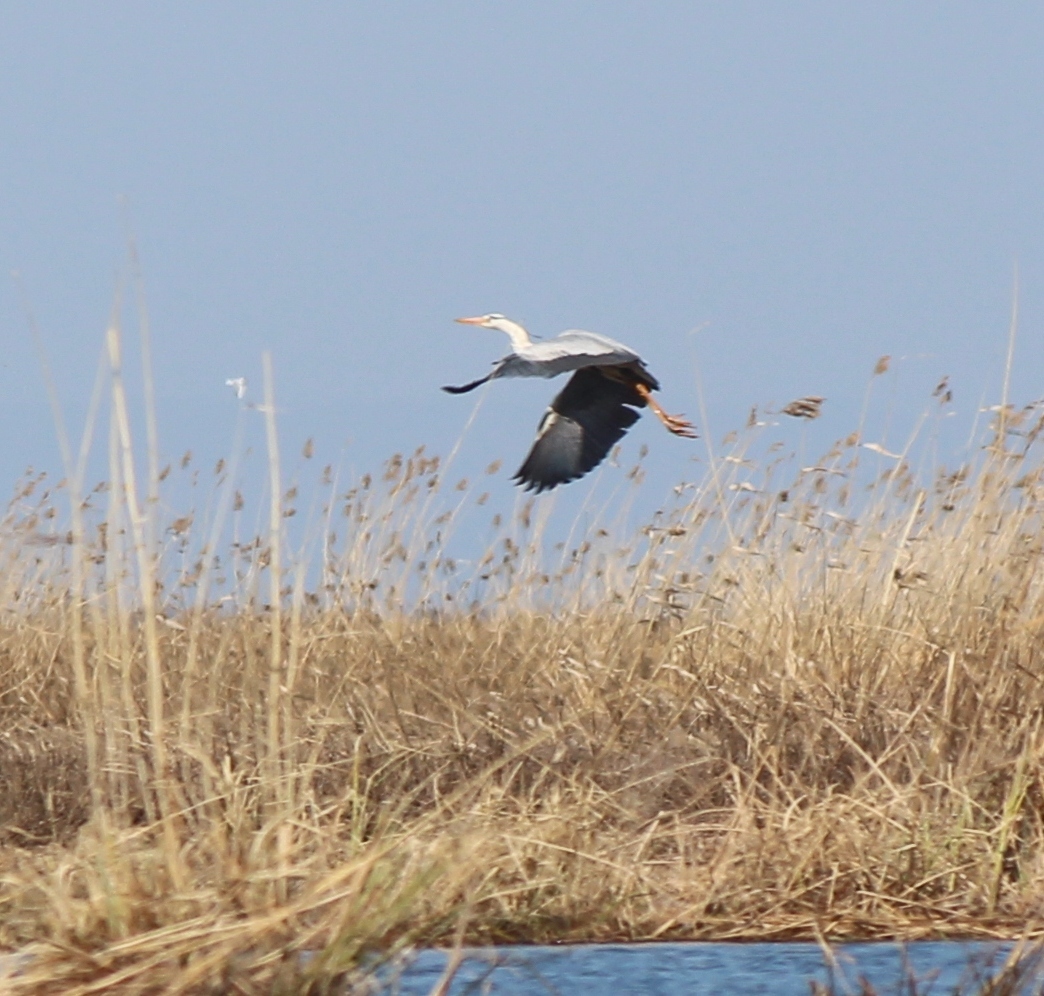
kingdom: Animalia
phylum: Chordata
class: Aves
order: Pelecaniformes
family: Ardeidae
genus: Ardea
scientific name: Ardea cinerea
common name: Grey heron
